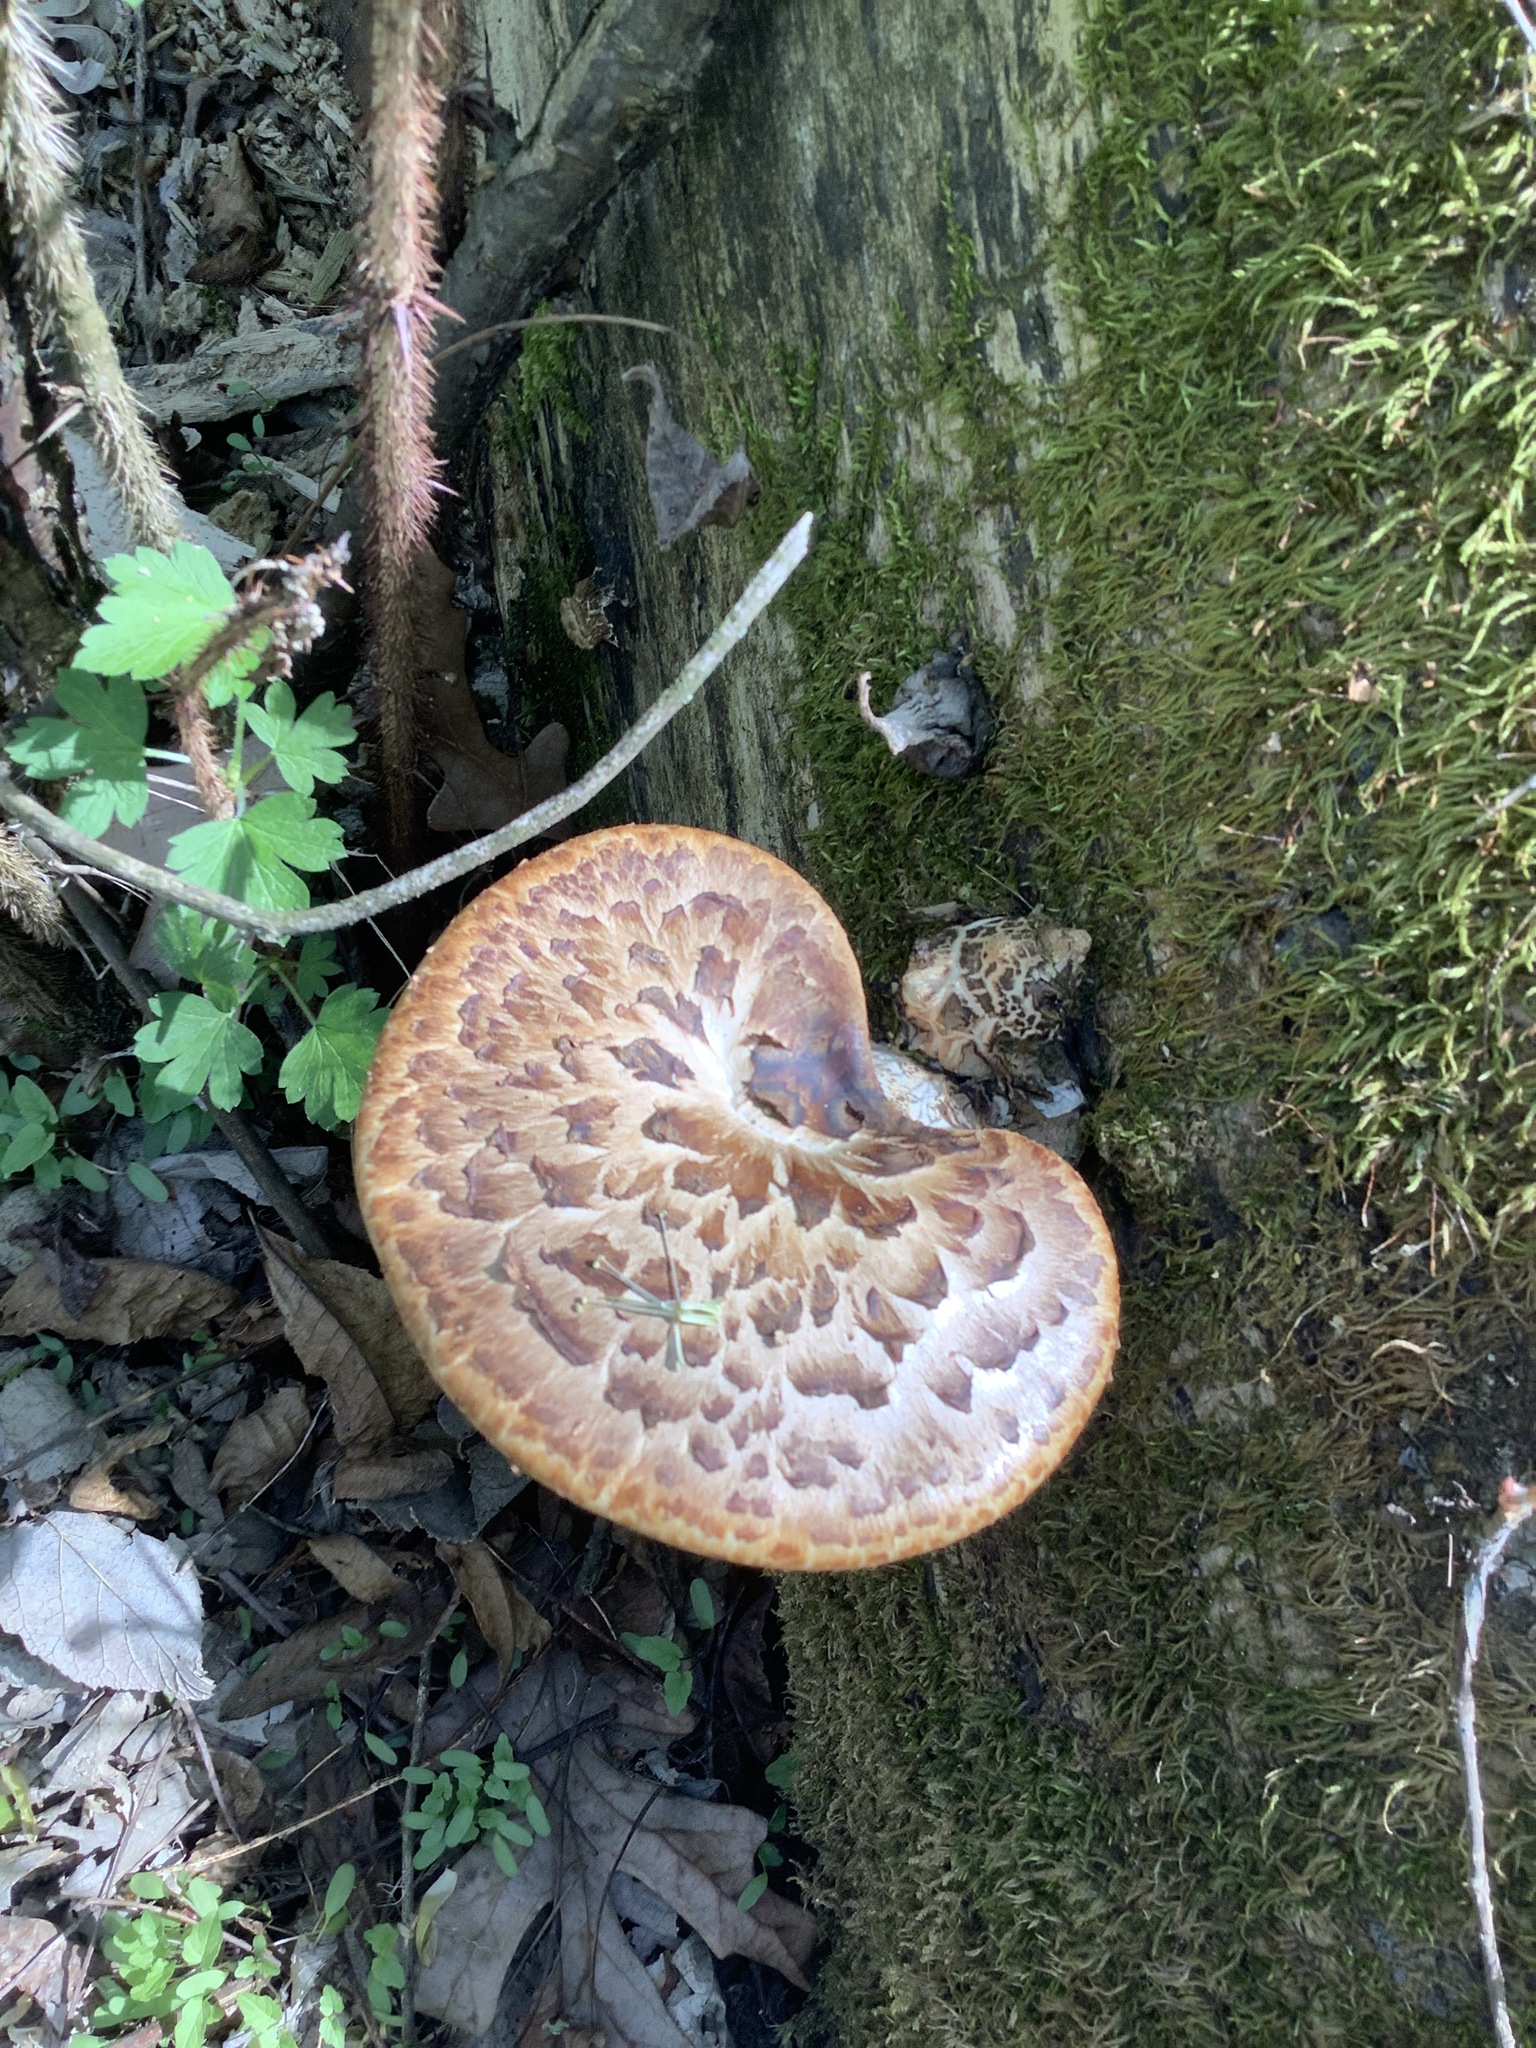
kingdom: Fungi
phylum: Basidiomycota
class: Agaricomycetes
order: Polyporales
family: Polyporaceae
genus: Cerioporus
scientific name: Cerioporus squamosus
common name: Dryad's saddle
